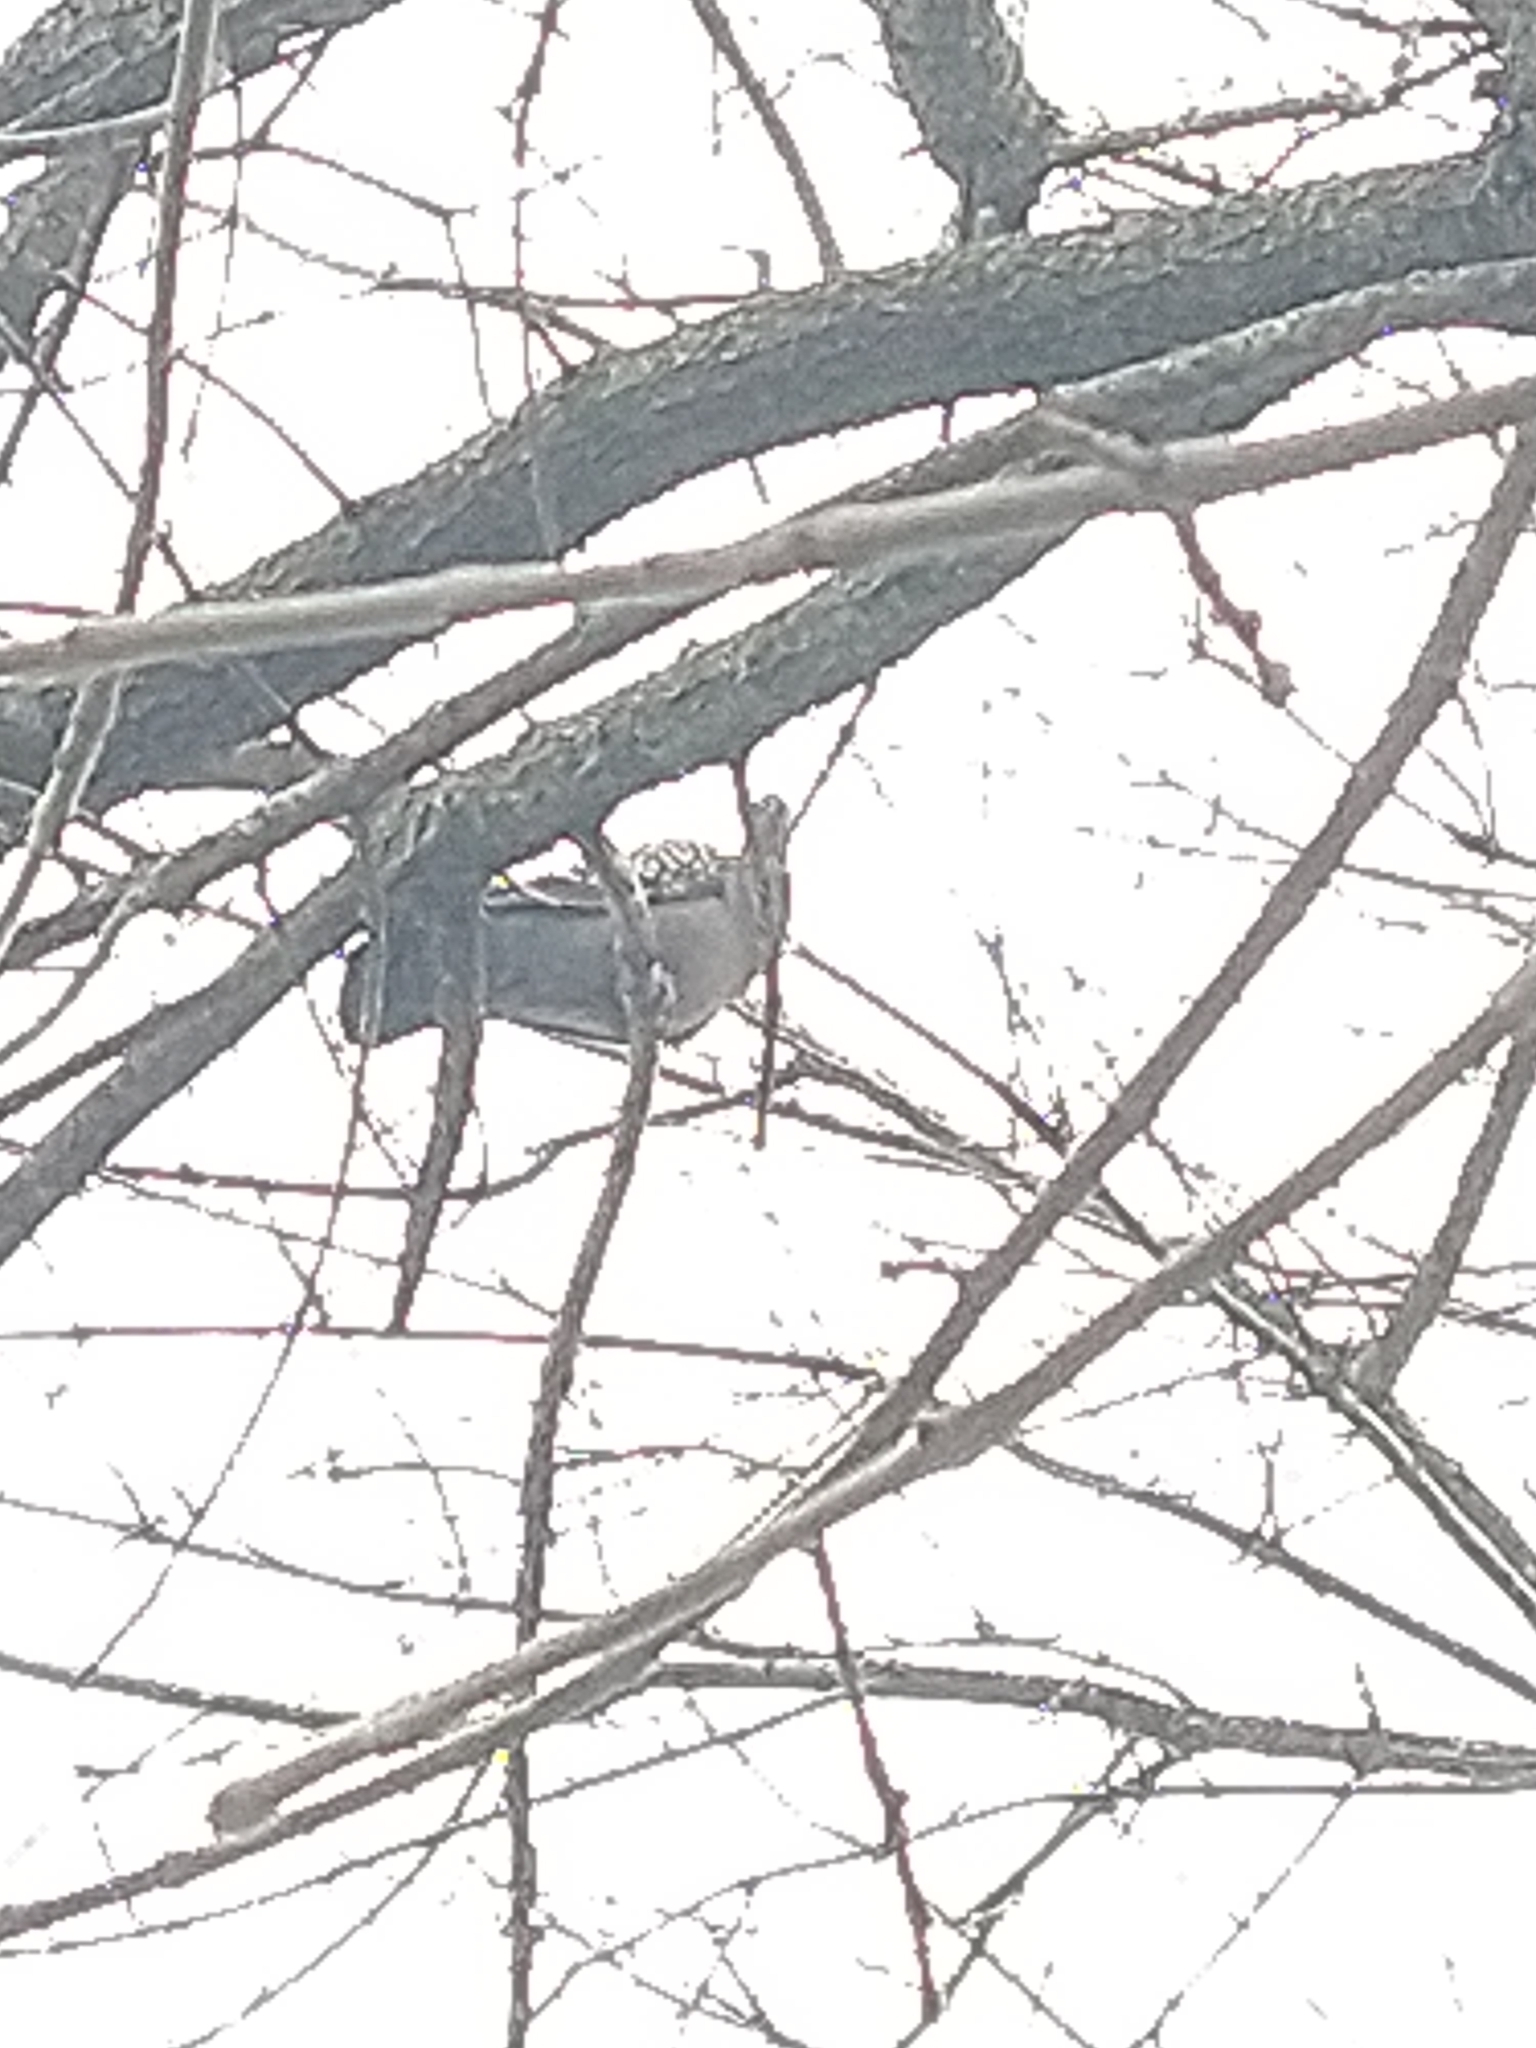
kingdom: Animalia
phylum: Chordata
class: Aves
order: Columbiformes
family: Columbidae
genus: Patagioenas
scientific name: Patagioenas maculosa
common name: Spot-winged pigeon
